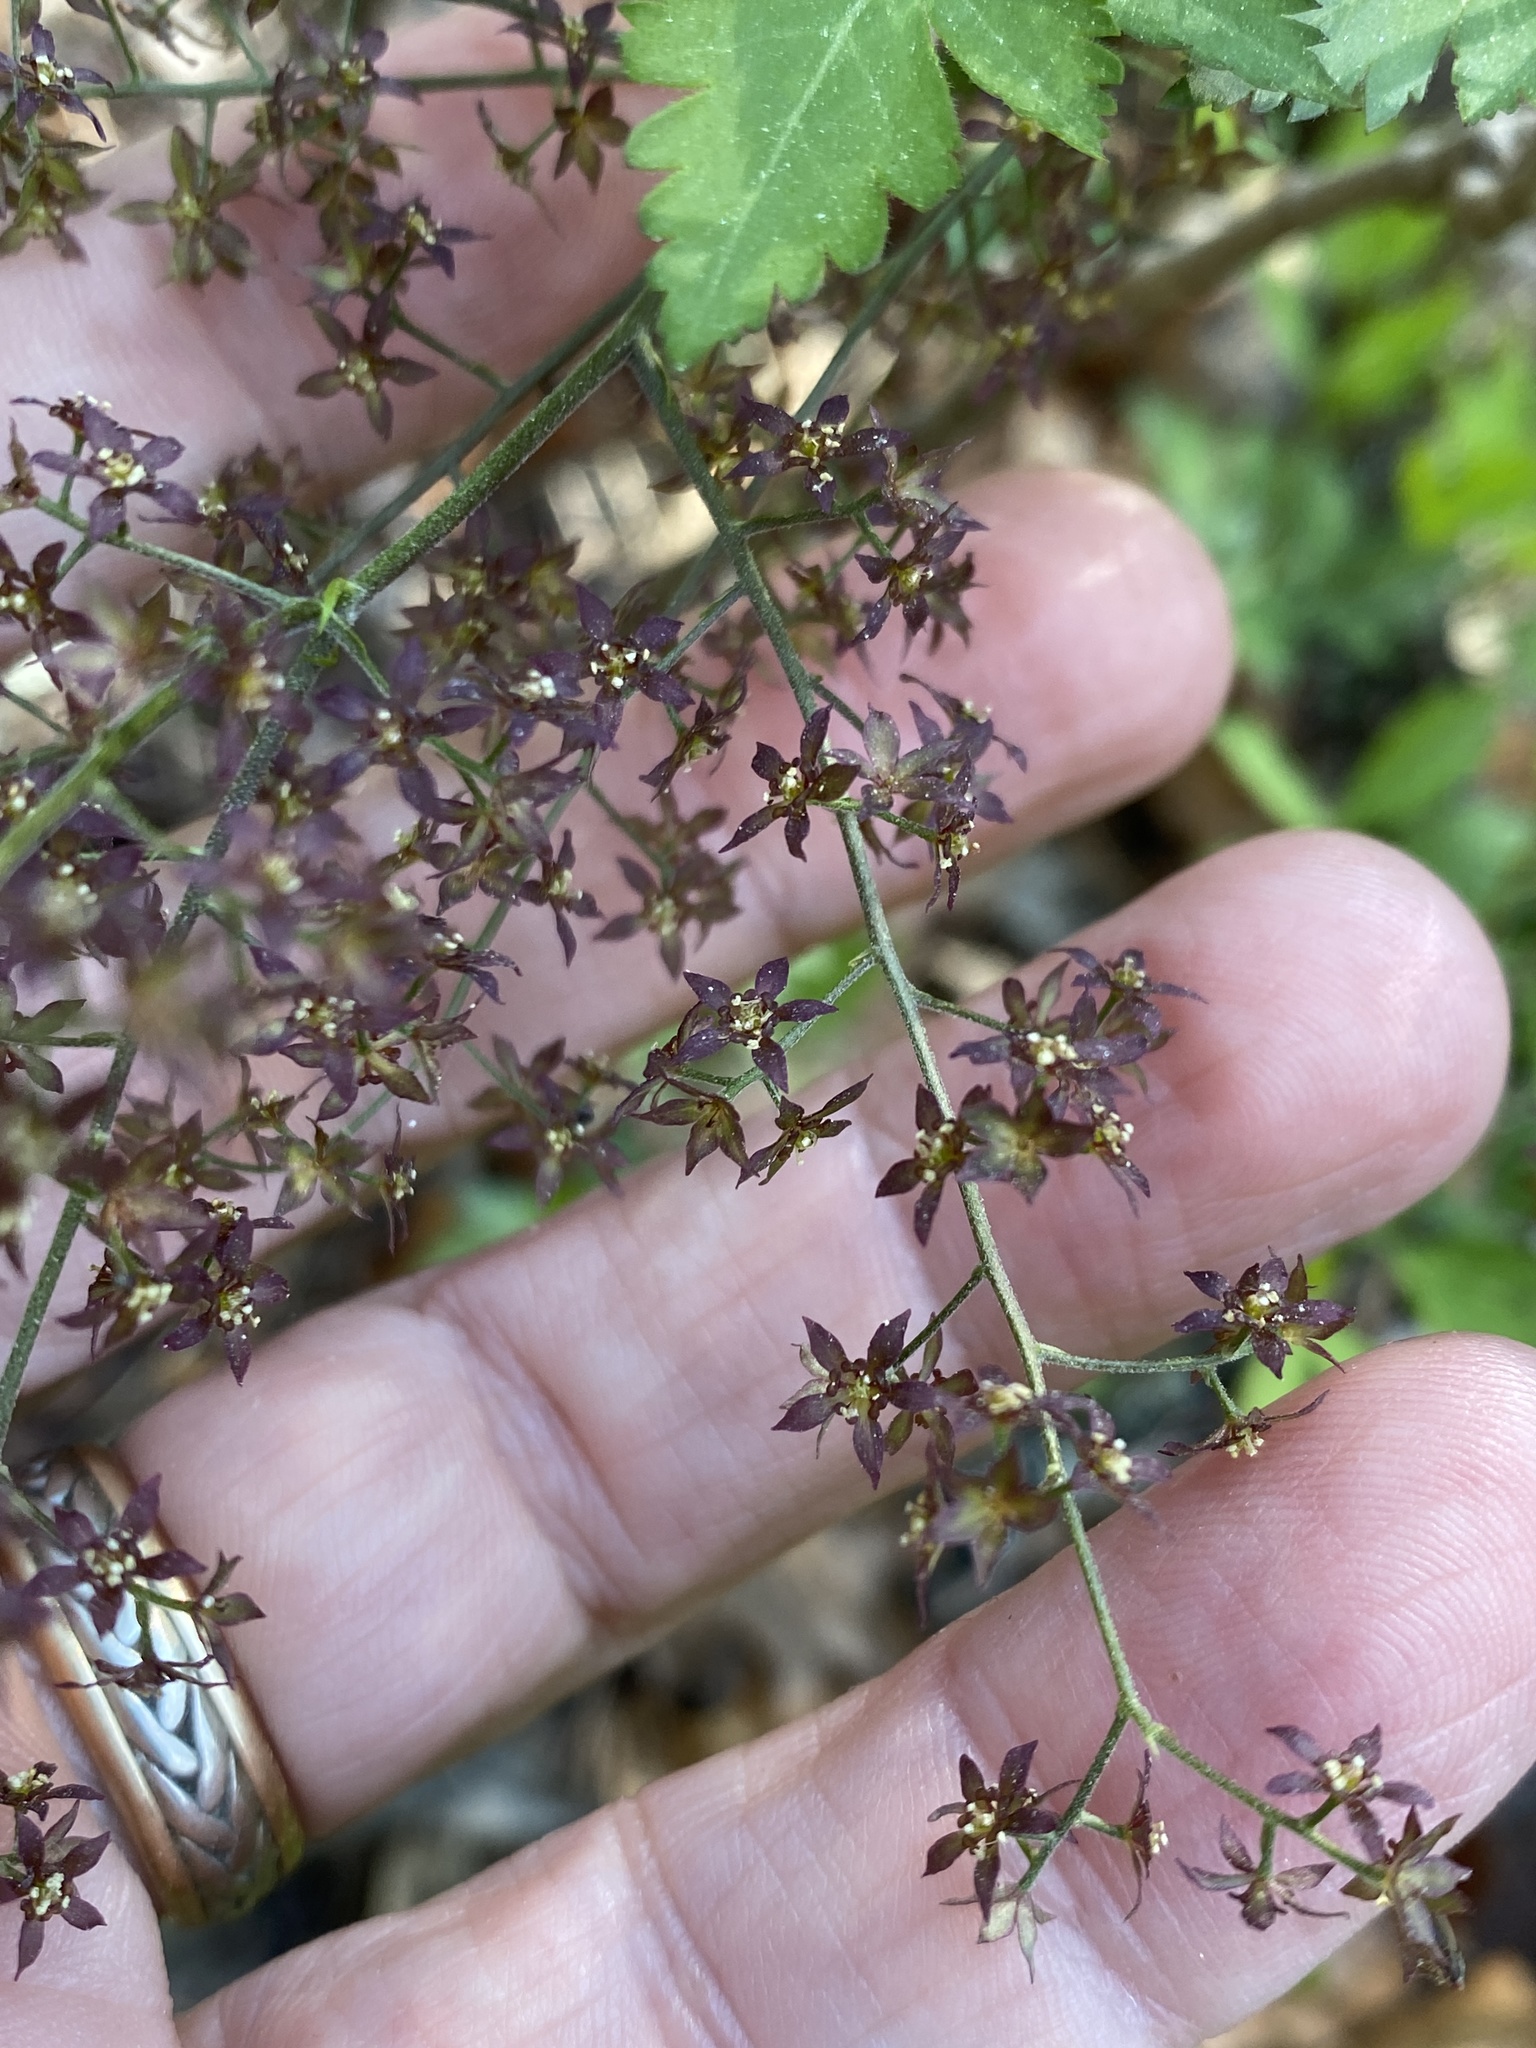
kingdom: Plantae
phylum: Tracheophyta
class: Magnoliopsida
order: Ranunculales
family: Ranunculaceae
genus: Xanthorhiza
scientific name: Xanthorhiza simplicissima
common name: Yellowroot
